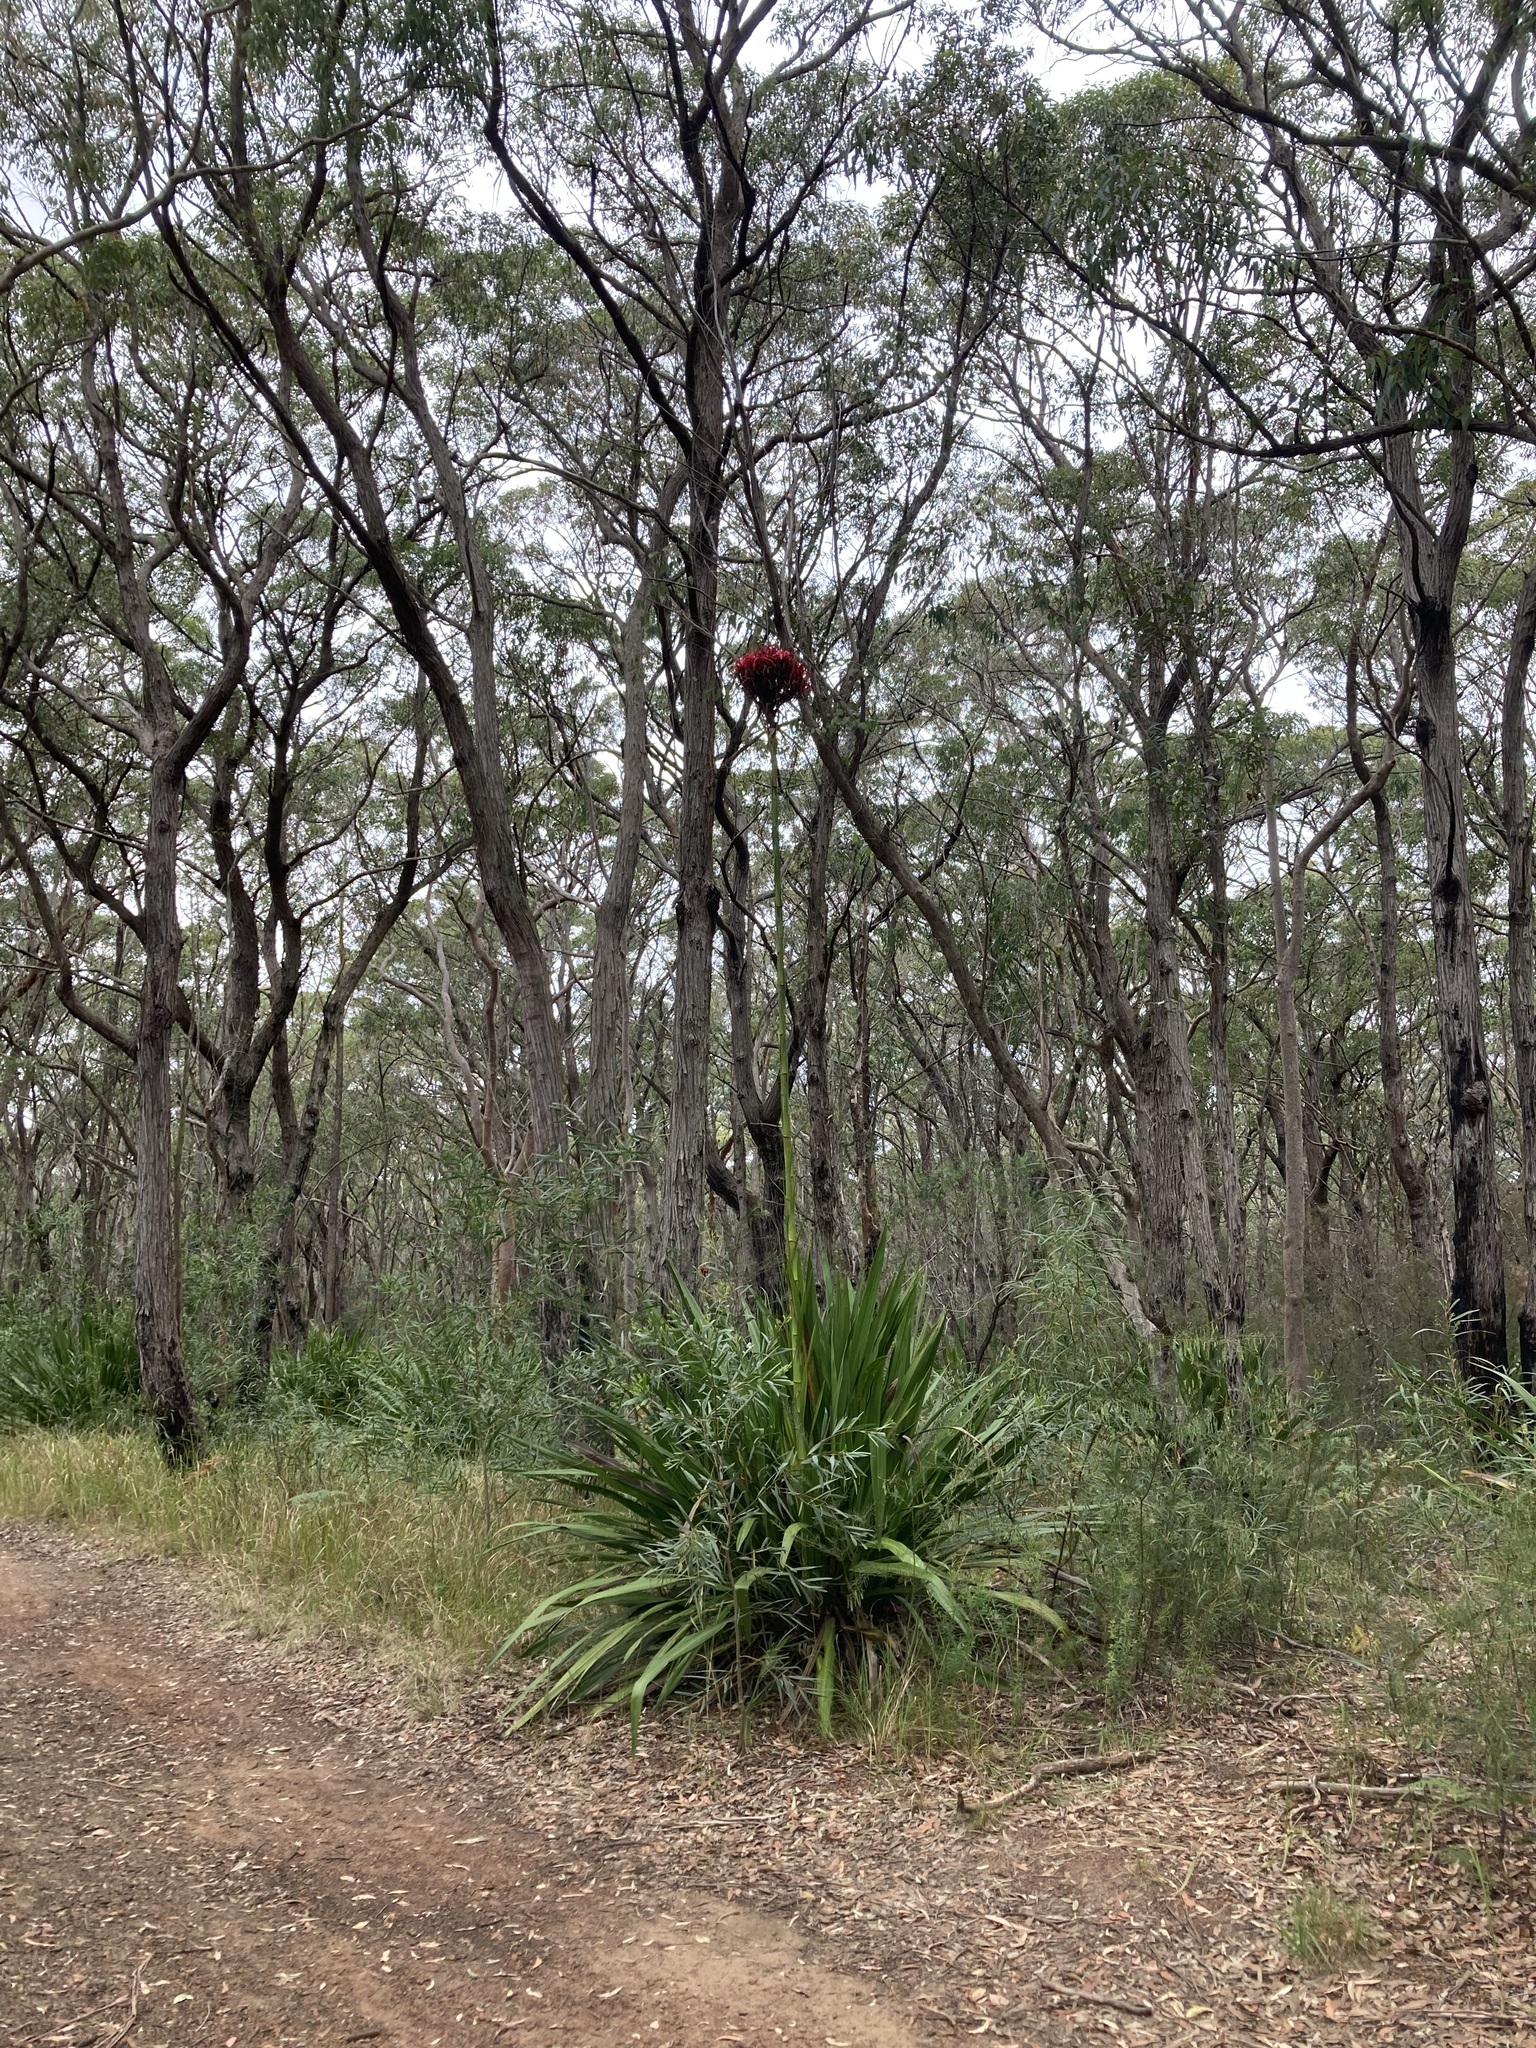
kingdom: Plantae
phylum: Tracheophyta
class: Liliopsida
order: Asparagales
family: Doryanthaceae
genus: Doryanthes
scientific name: Doryanthes excelsa
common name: Giant-lily
